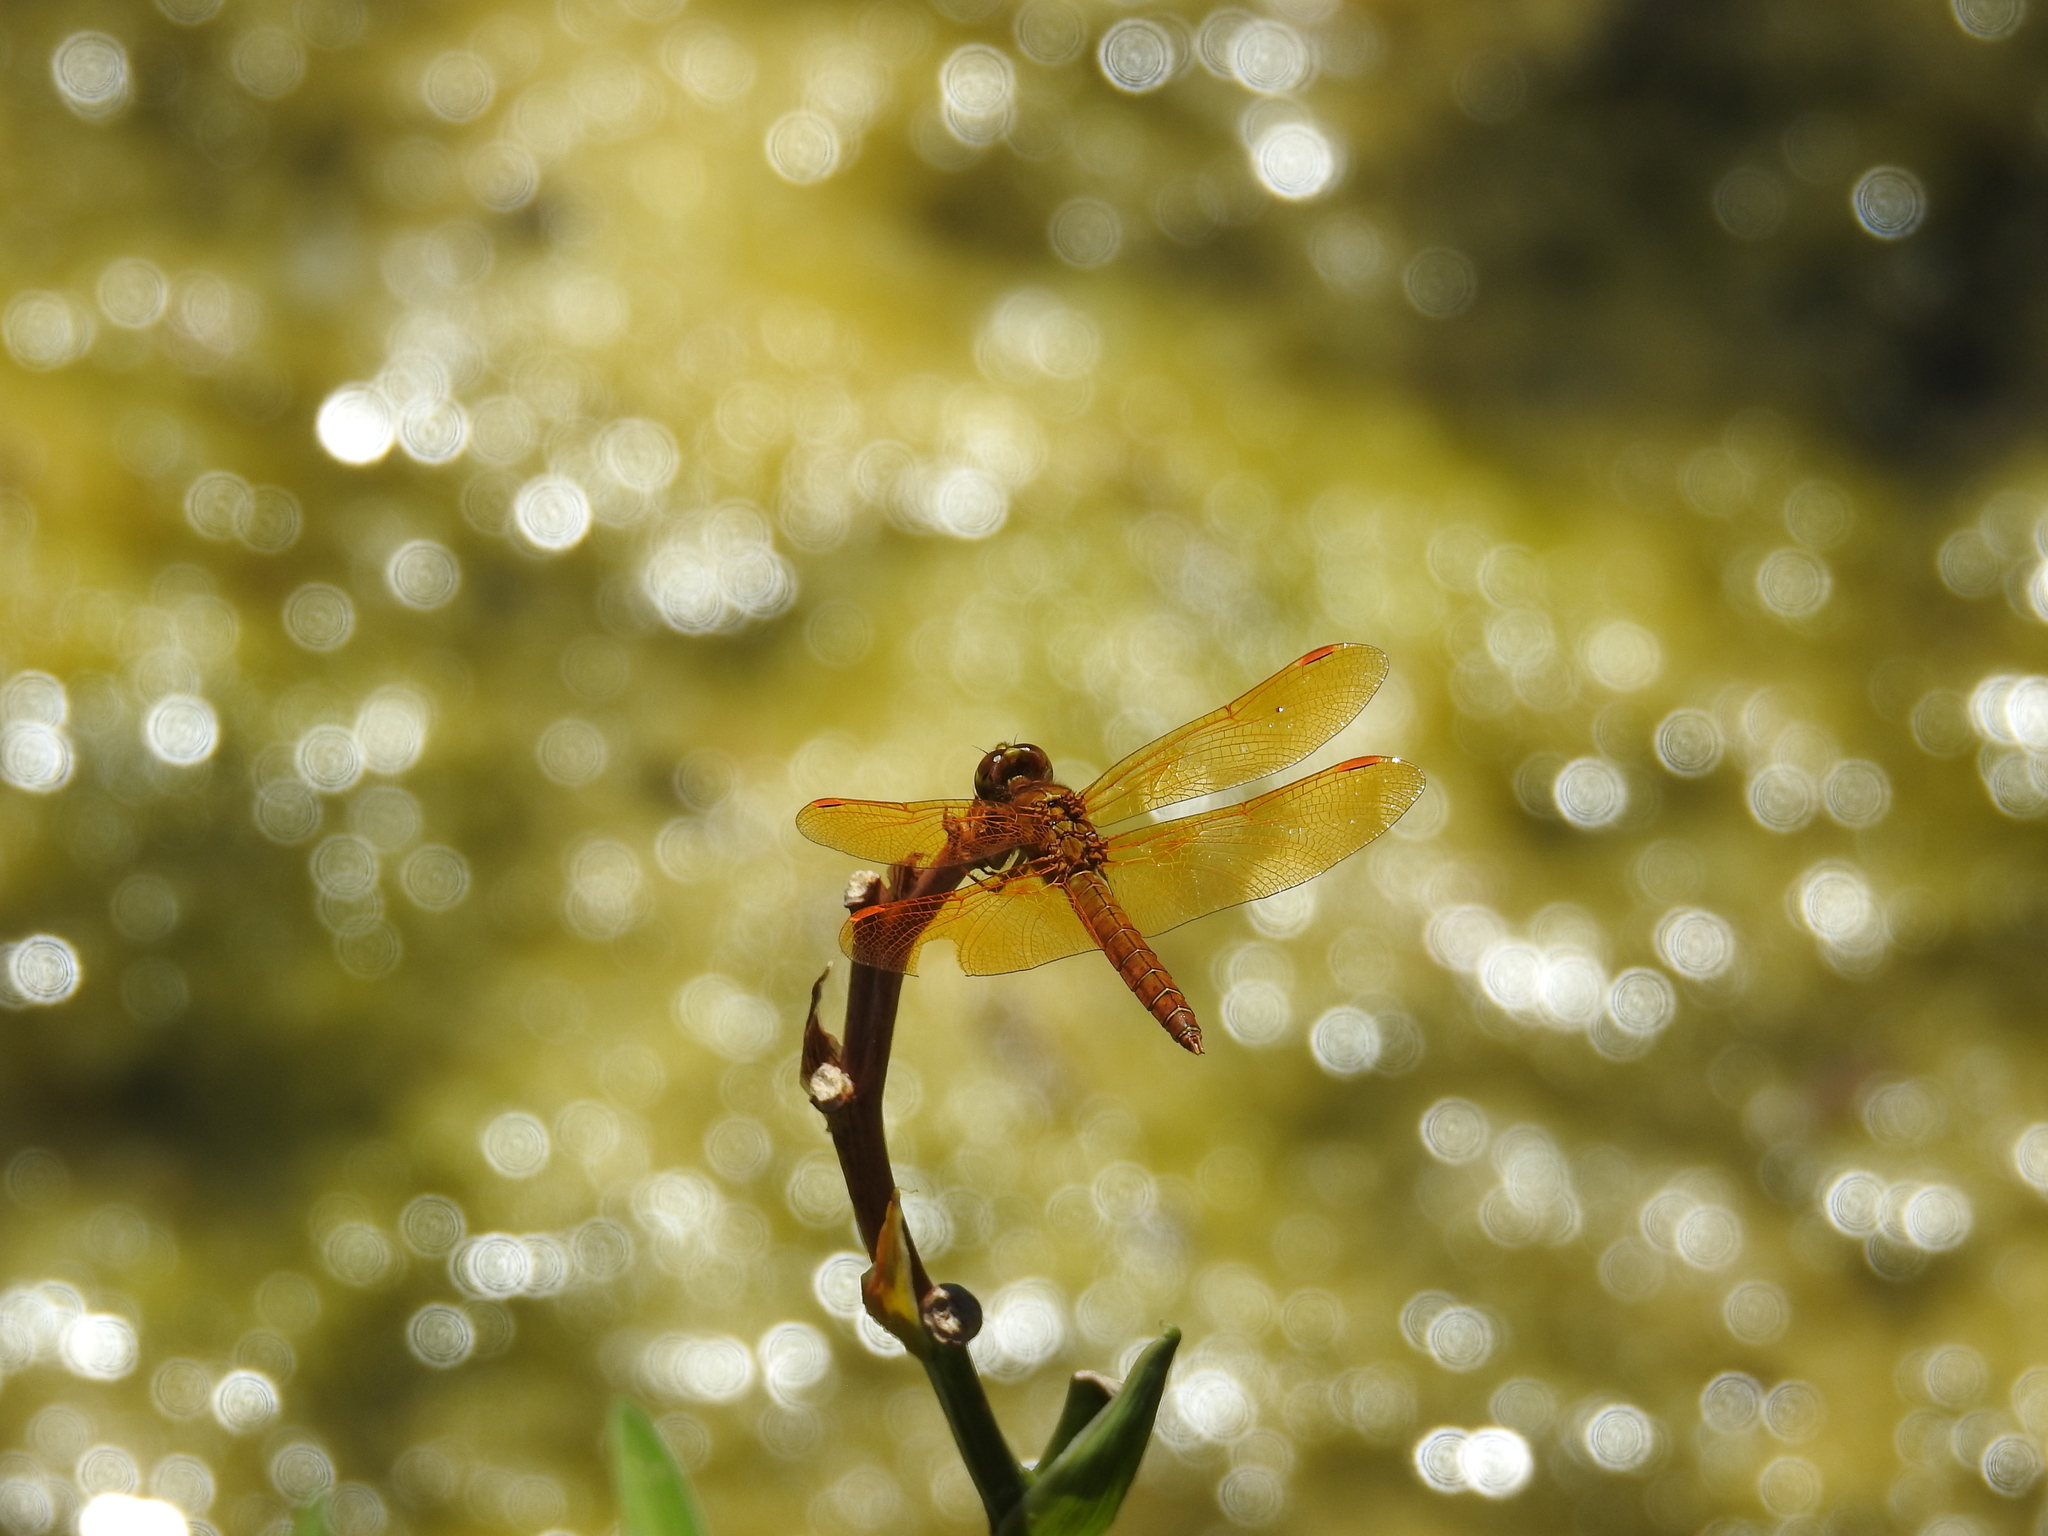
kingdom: Animalia
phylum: Arthropoda
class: Insecta
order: Odonata
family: Libellulidae
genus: Perithemis
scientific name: Perithemis intensa
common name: Mexican amberwing
